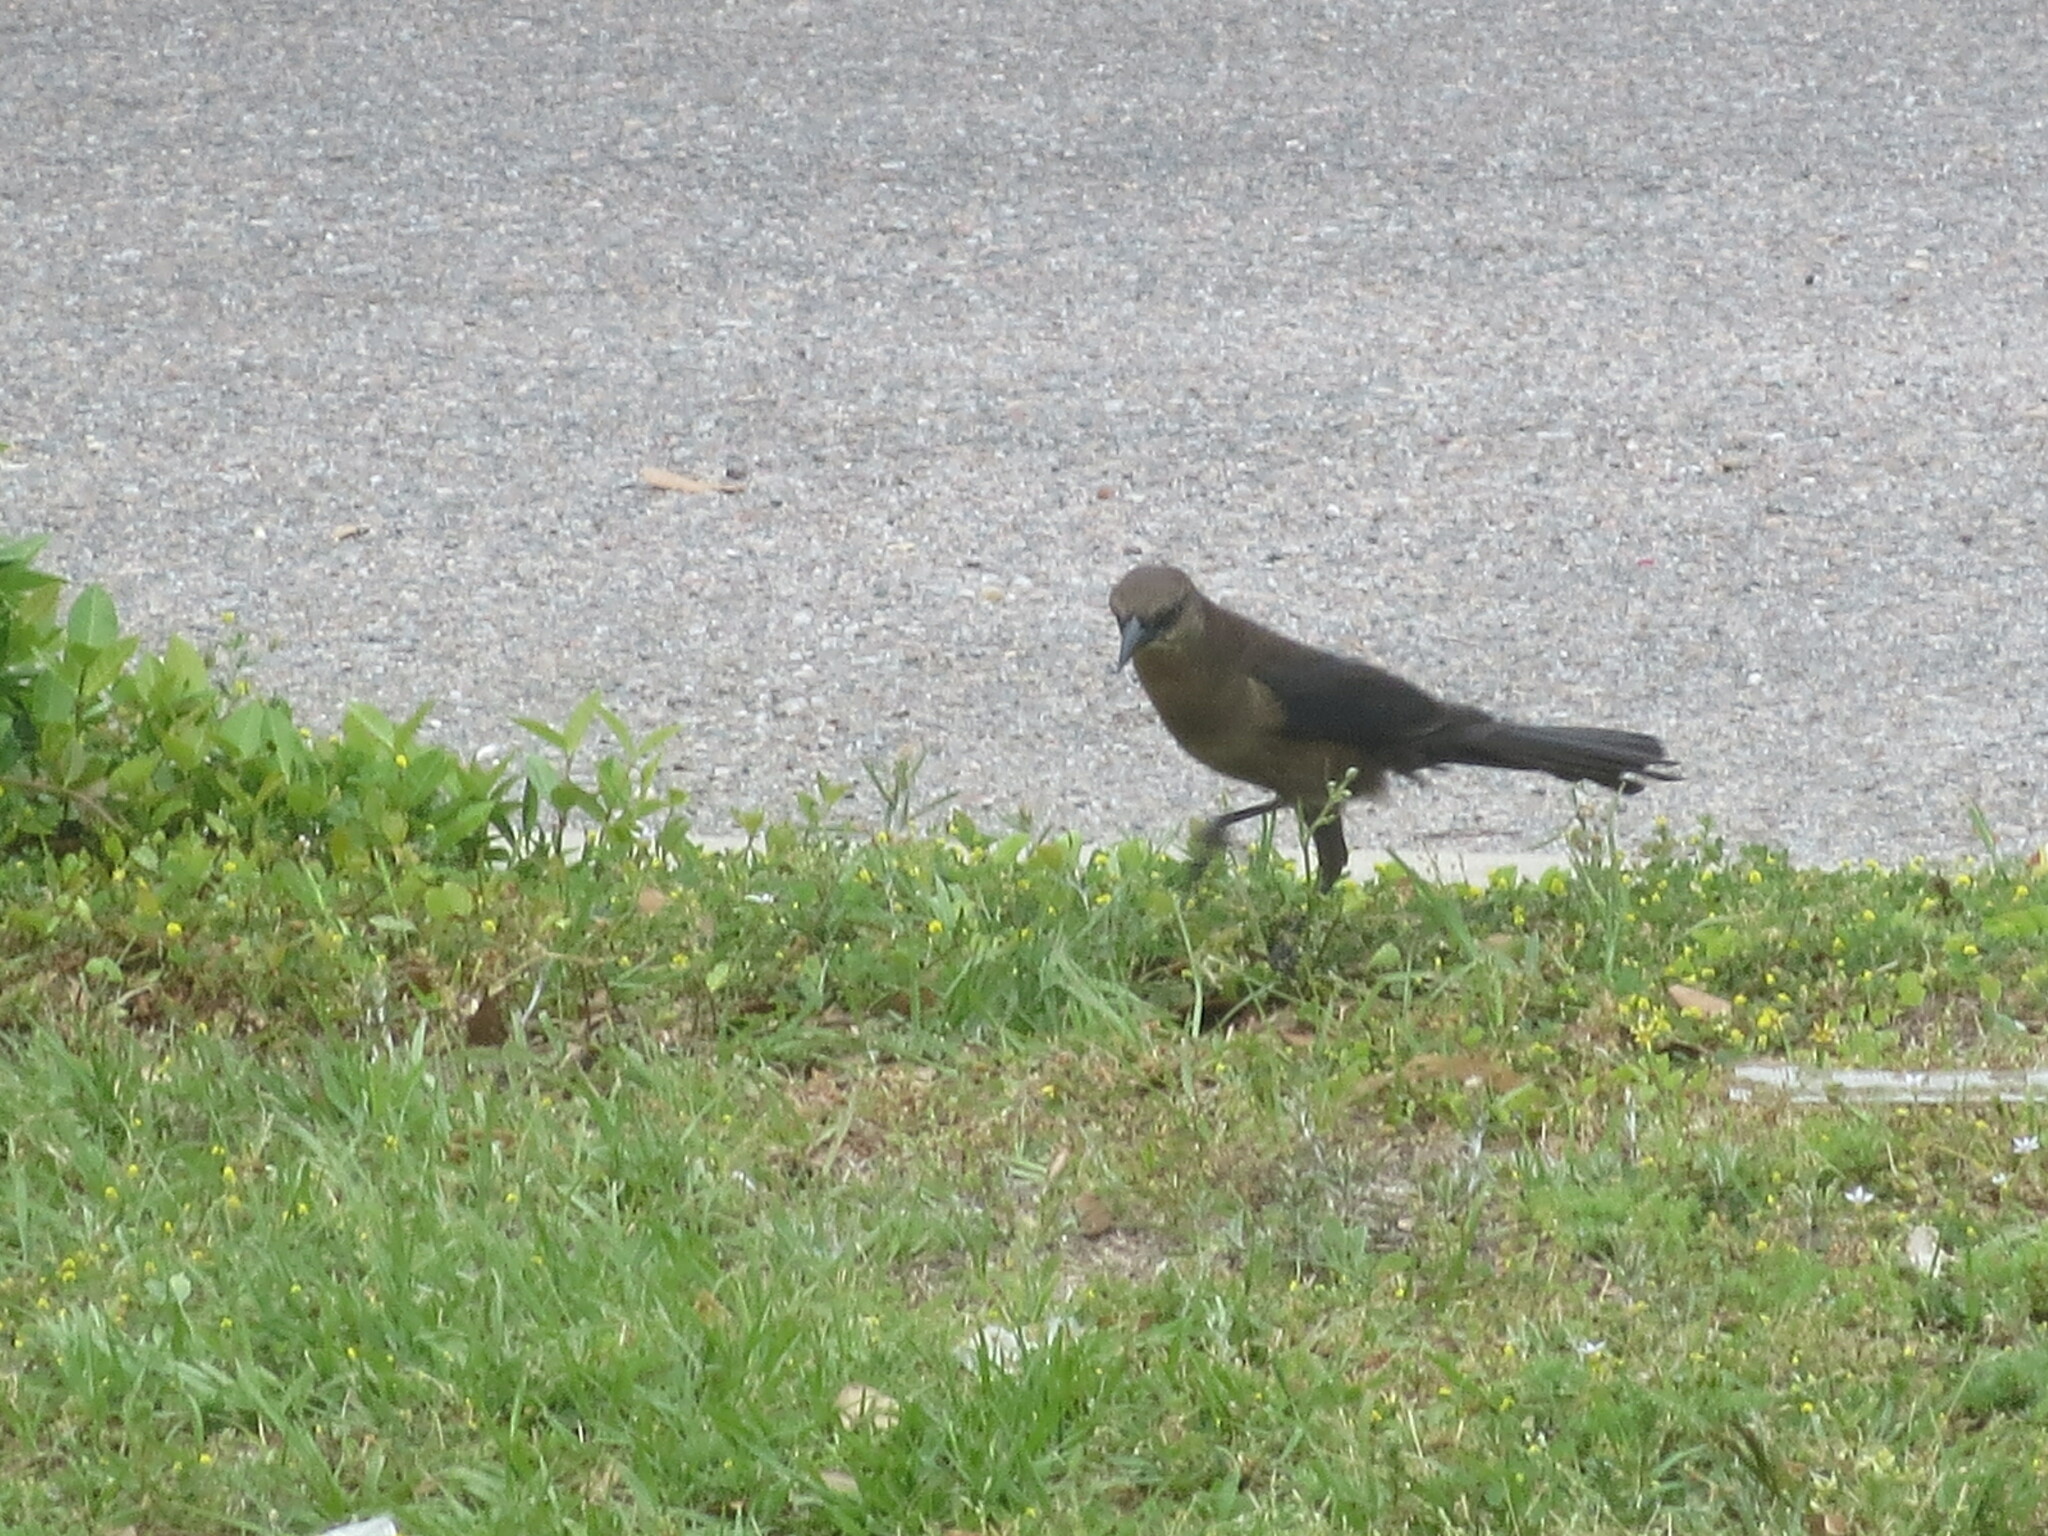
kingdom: Animalia
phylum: Chordata
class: Aves
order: Passeriformes
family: Icteridae
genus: Quiscalus
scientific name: Quiscalus major
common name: Boat-tailed grackle
